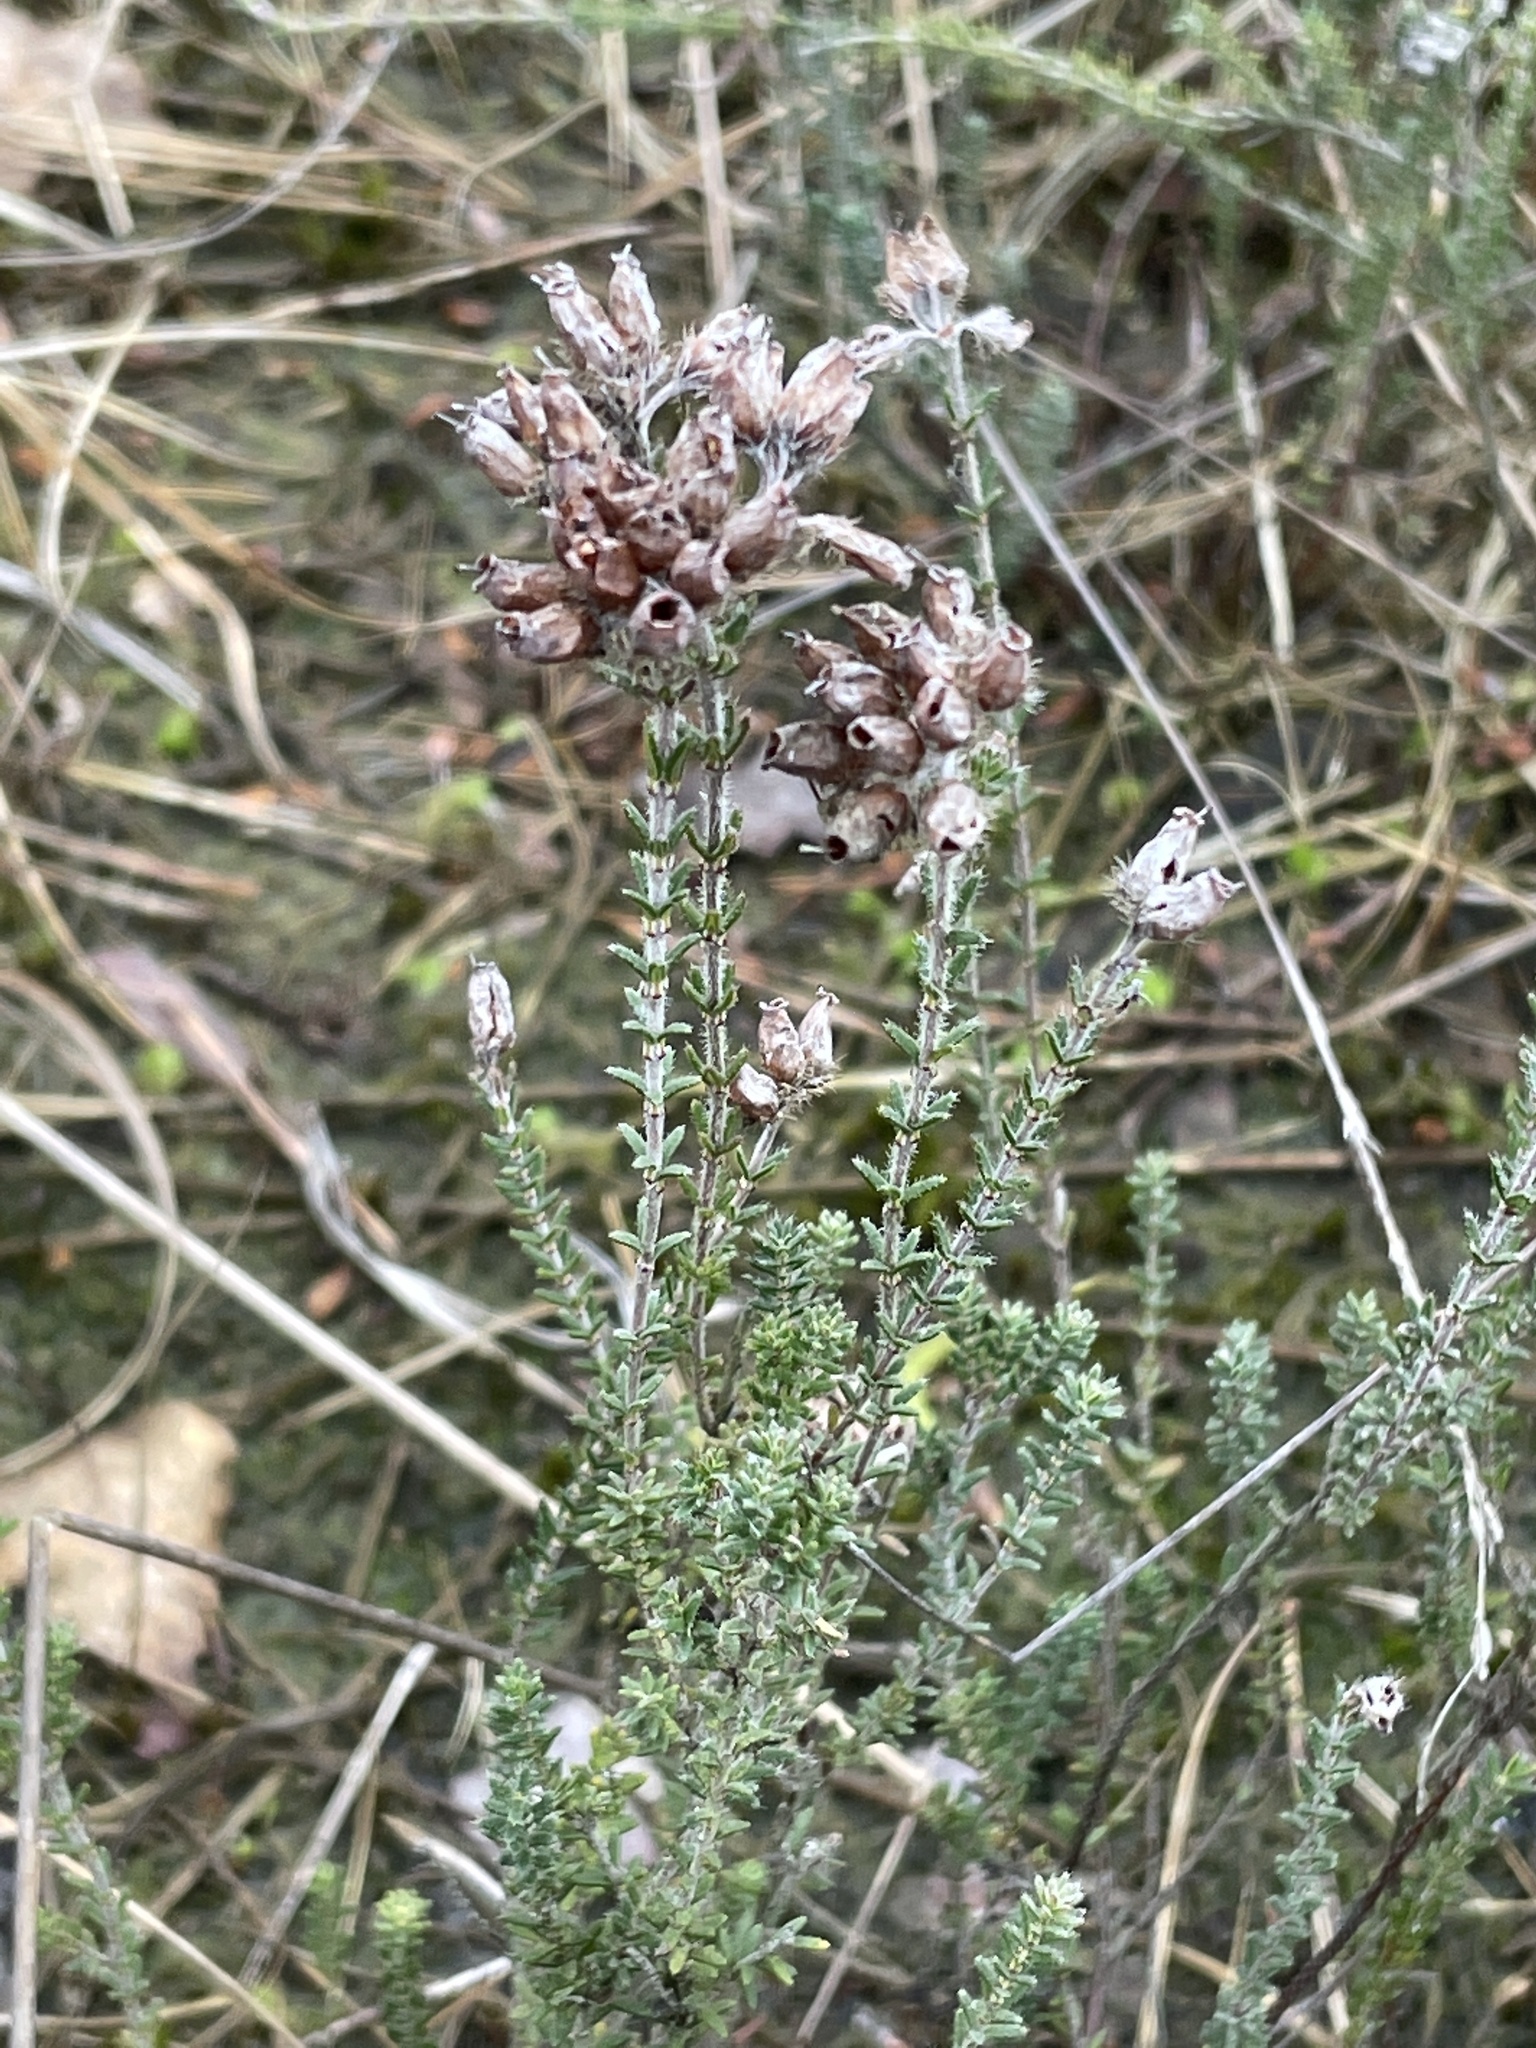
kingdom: Plantae
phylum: Tracheophyta
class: Magnoliopsida
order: Ericales
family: Ericaceae
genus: Erica
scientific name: Erica tetralix
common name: Cross-leaved heath
